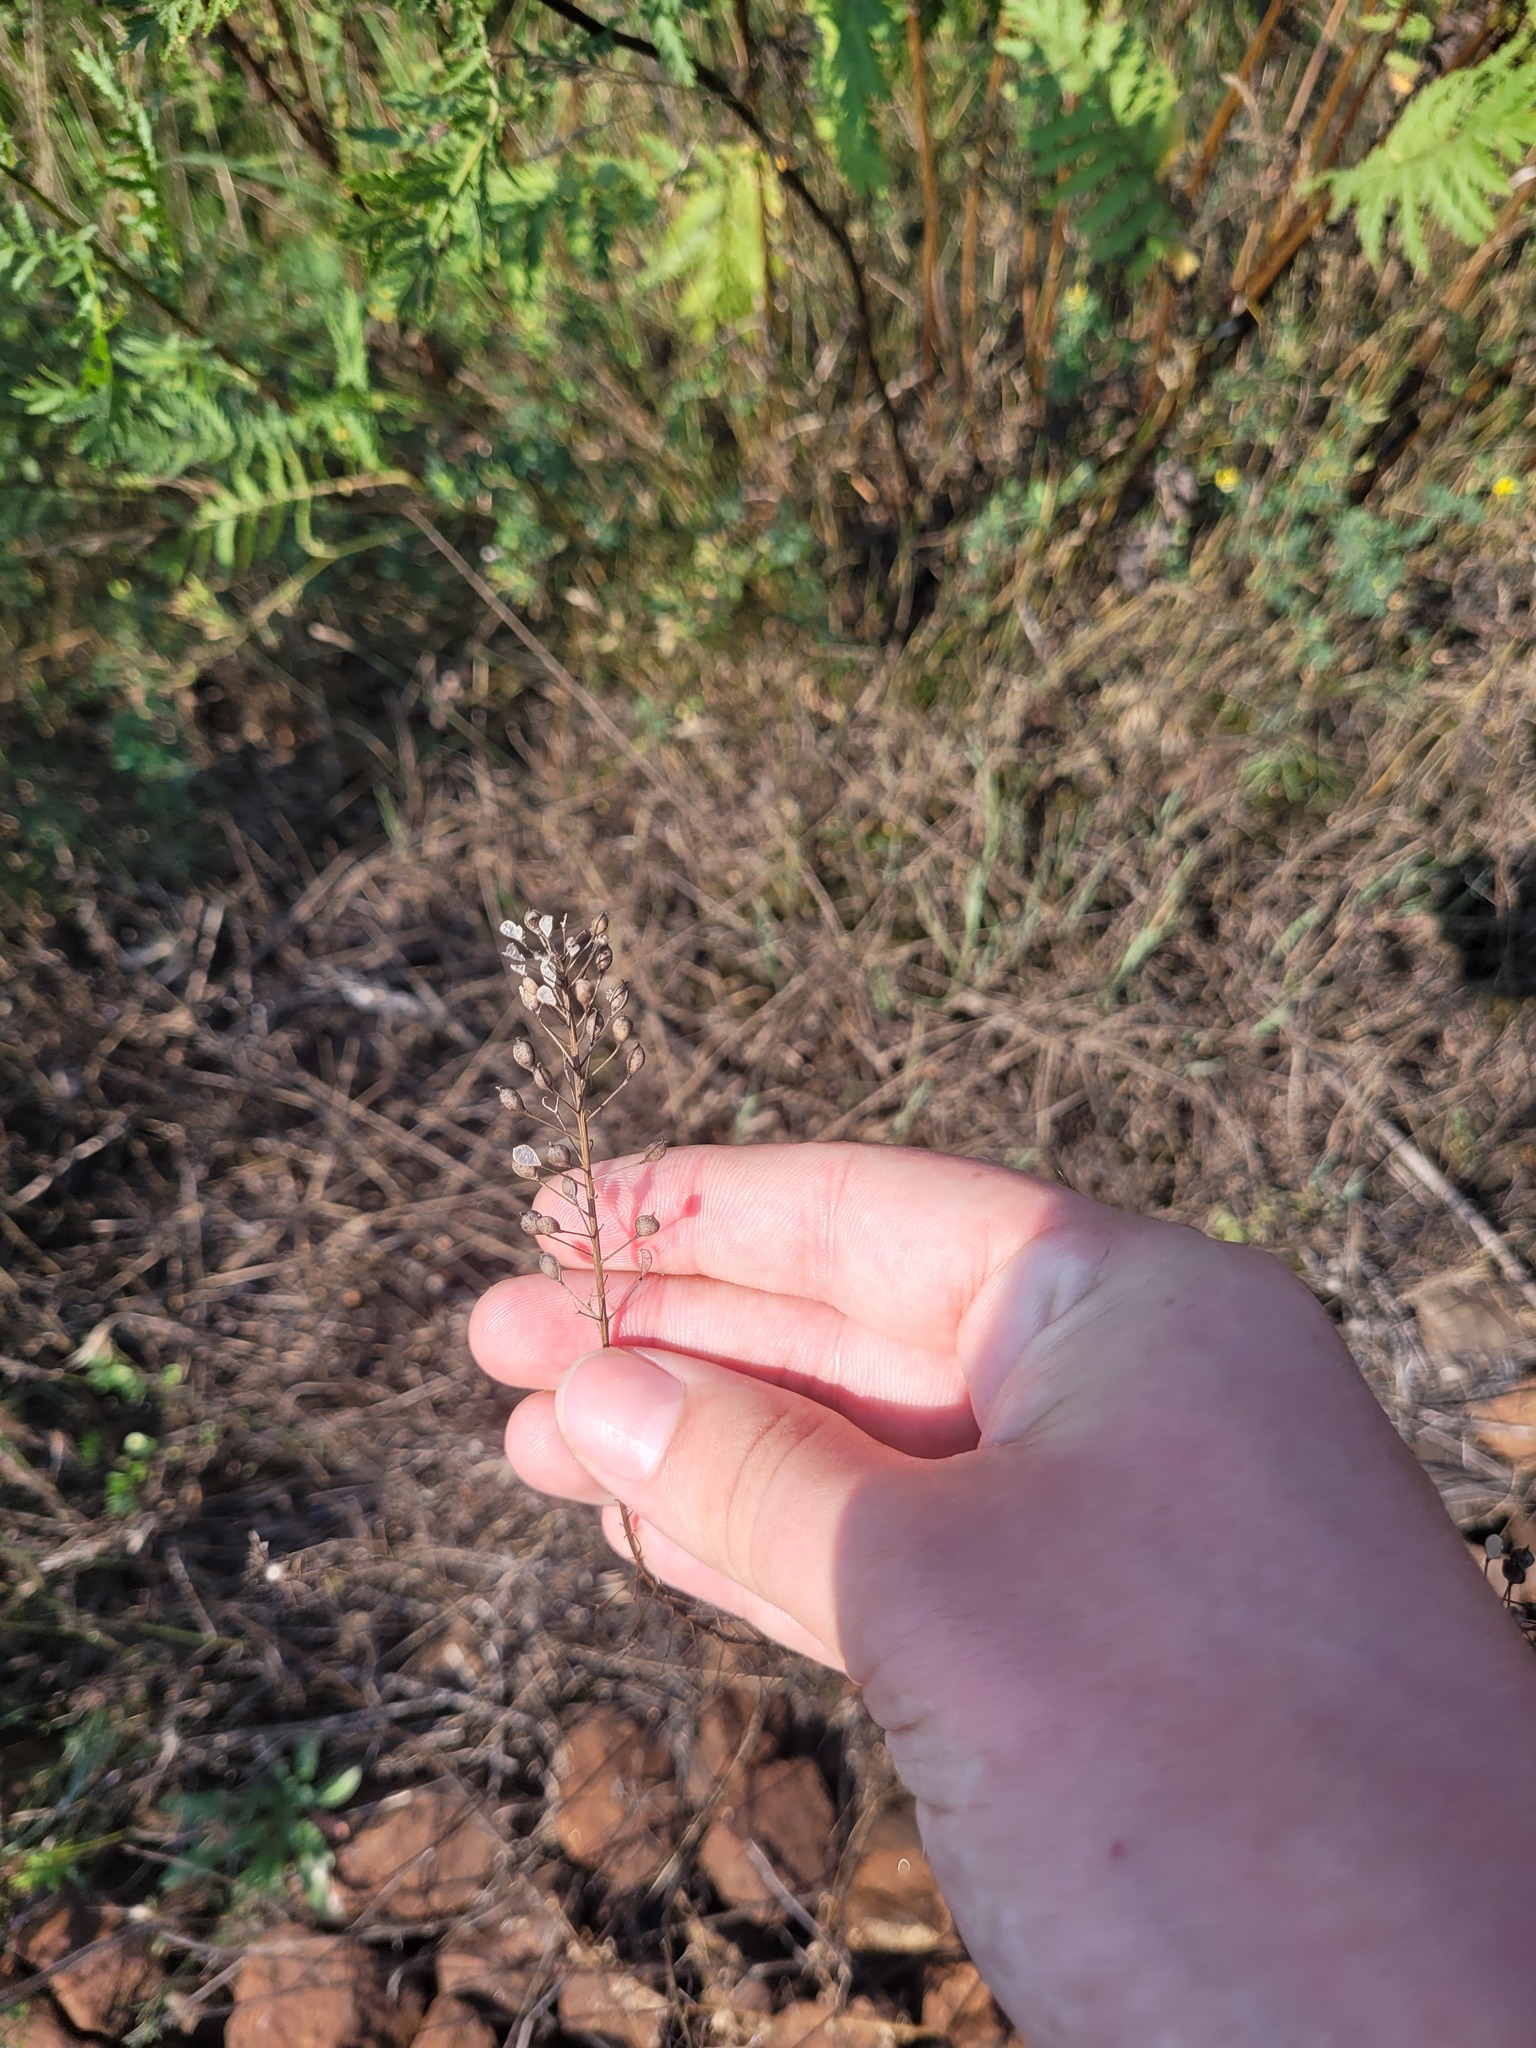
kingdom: Plantae
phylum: Tracheophyta
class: Magnoliopsida
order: Brassicales
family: Brassicaceae
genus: Camelina
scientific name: Camelina microcarpa
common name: Lesser gold-of-pleasure
